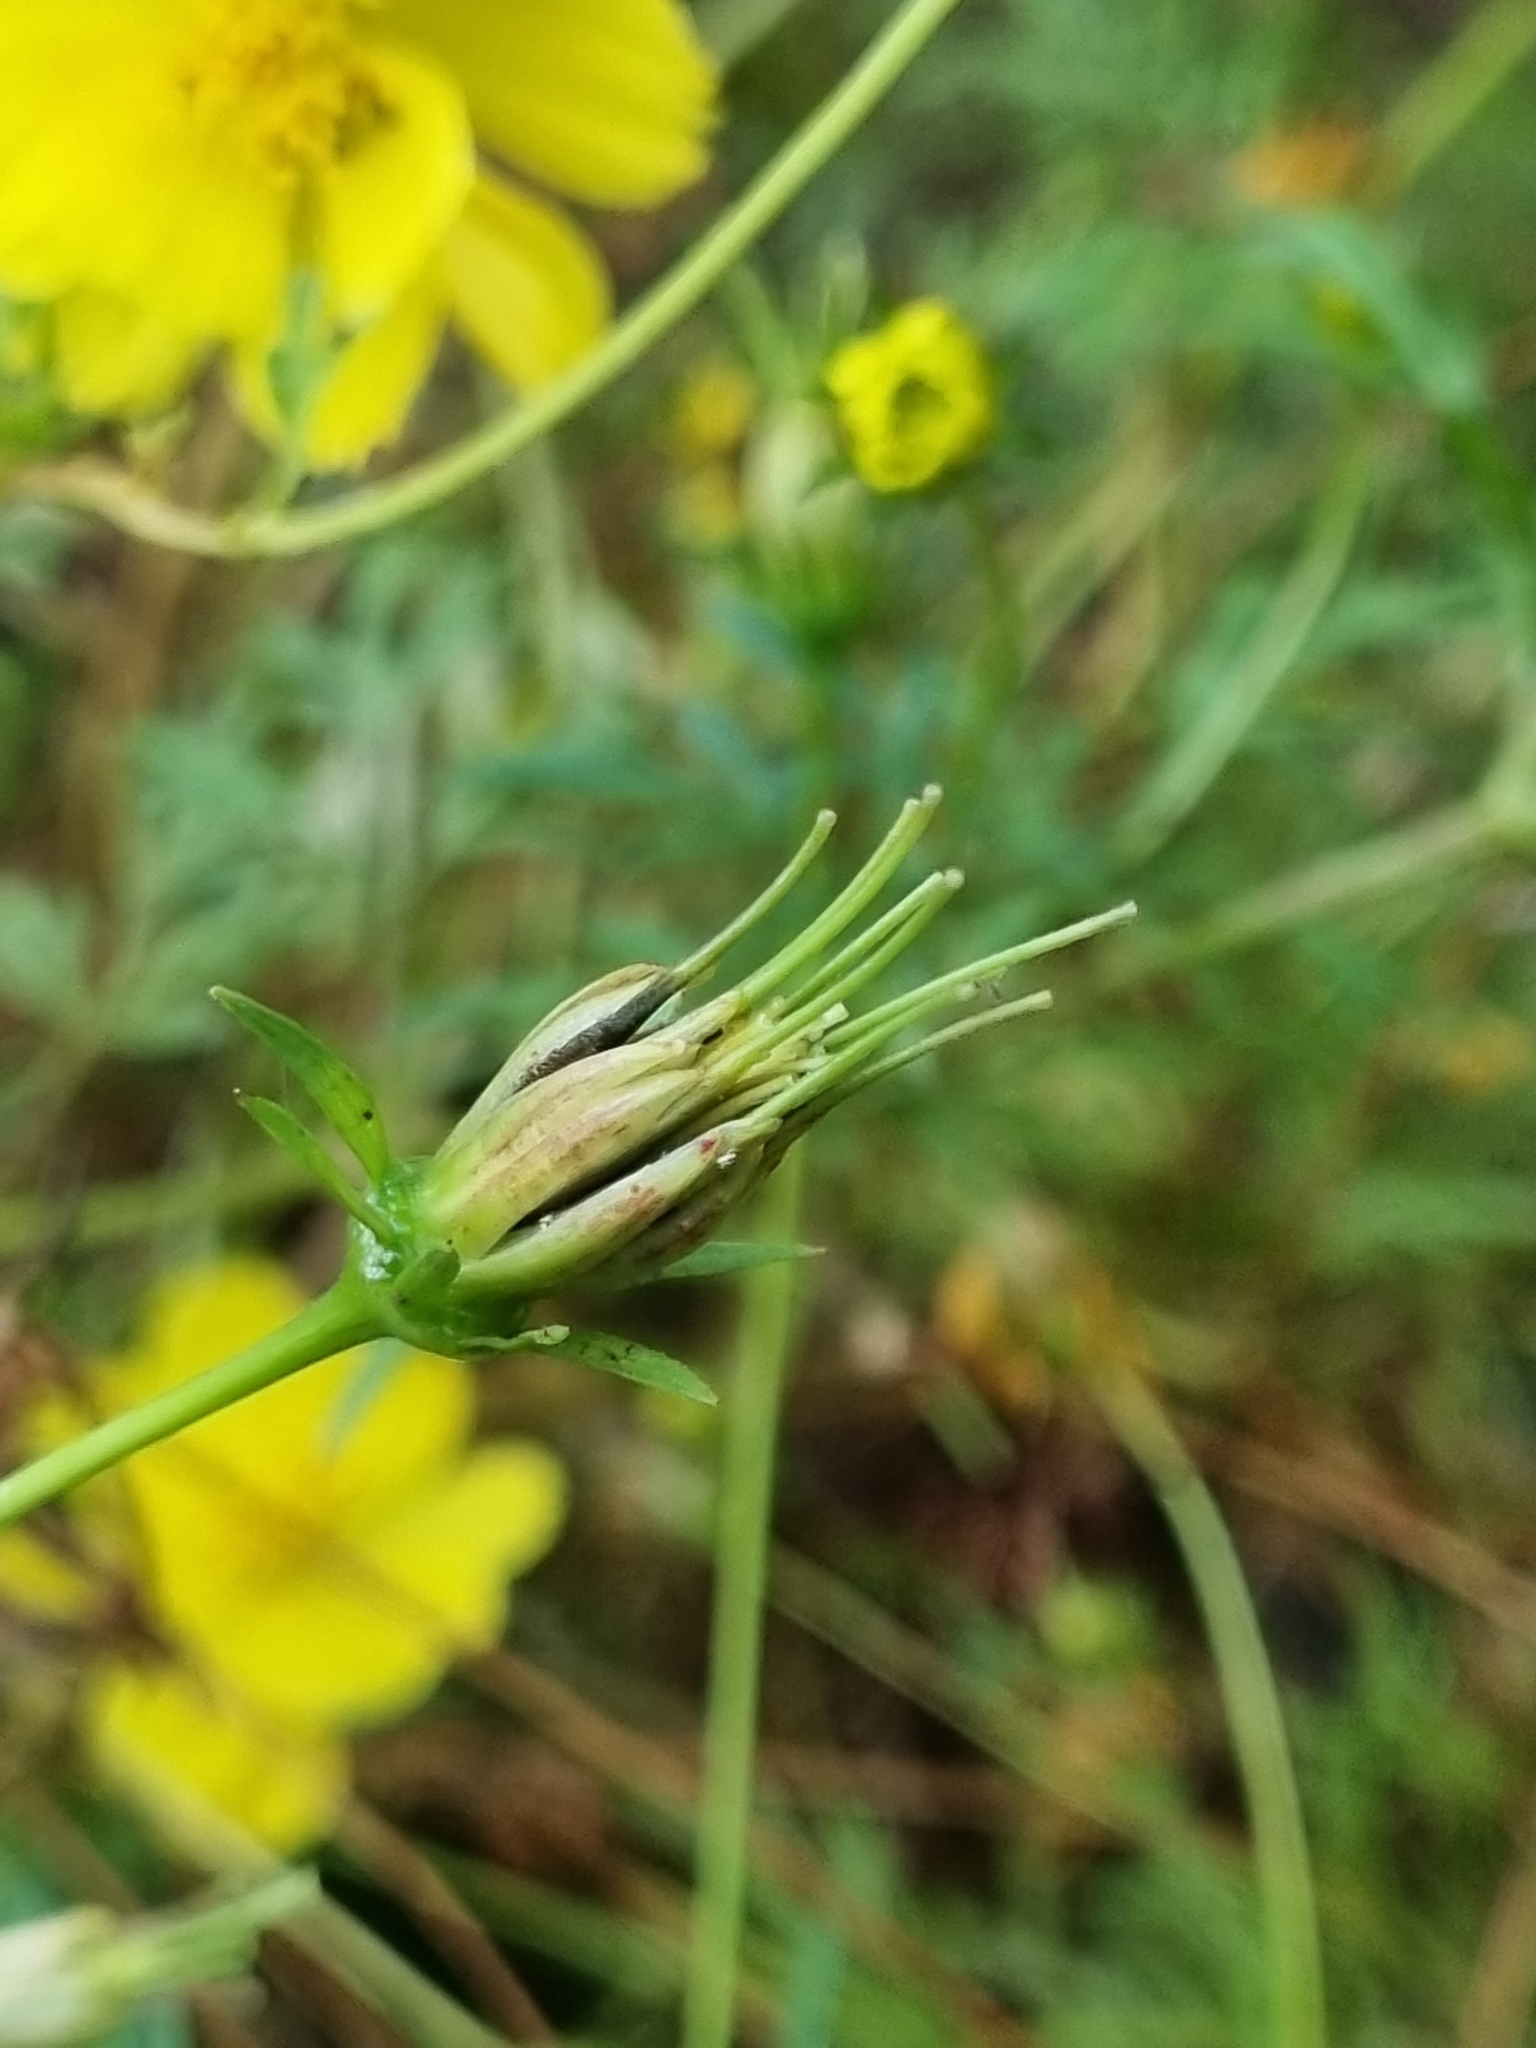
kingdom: Plantae
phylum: Tracheophyta
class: Magnoliopsida
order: Asterales
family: Asteraceae
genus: Cosmos
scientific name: Cosmos sulphureus
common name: Sulphur cosmos
